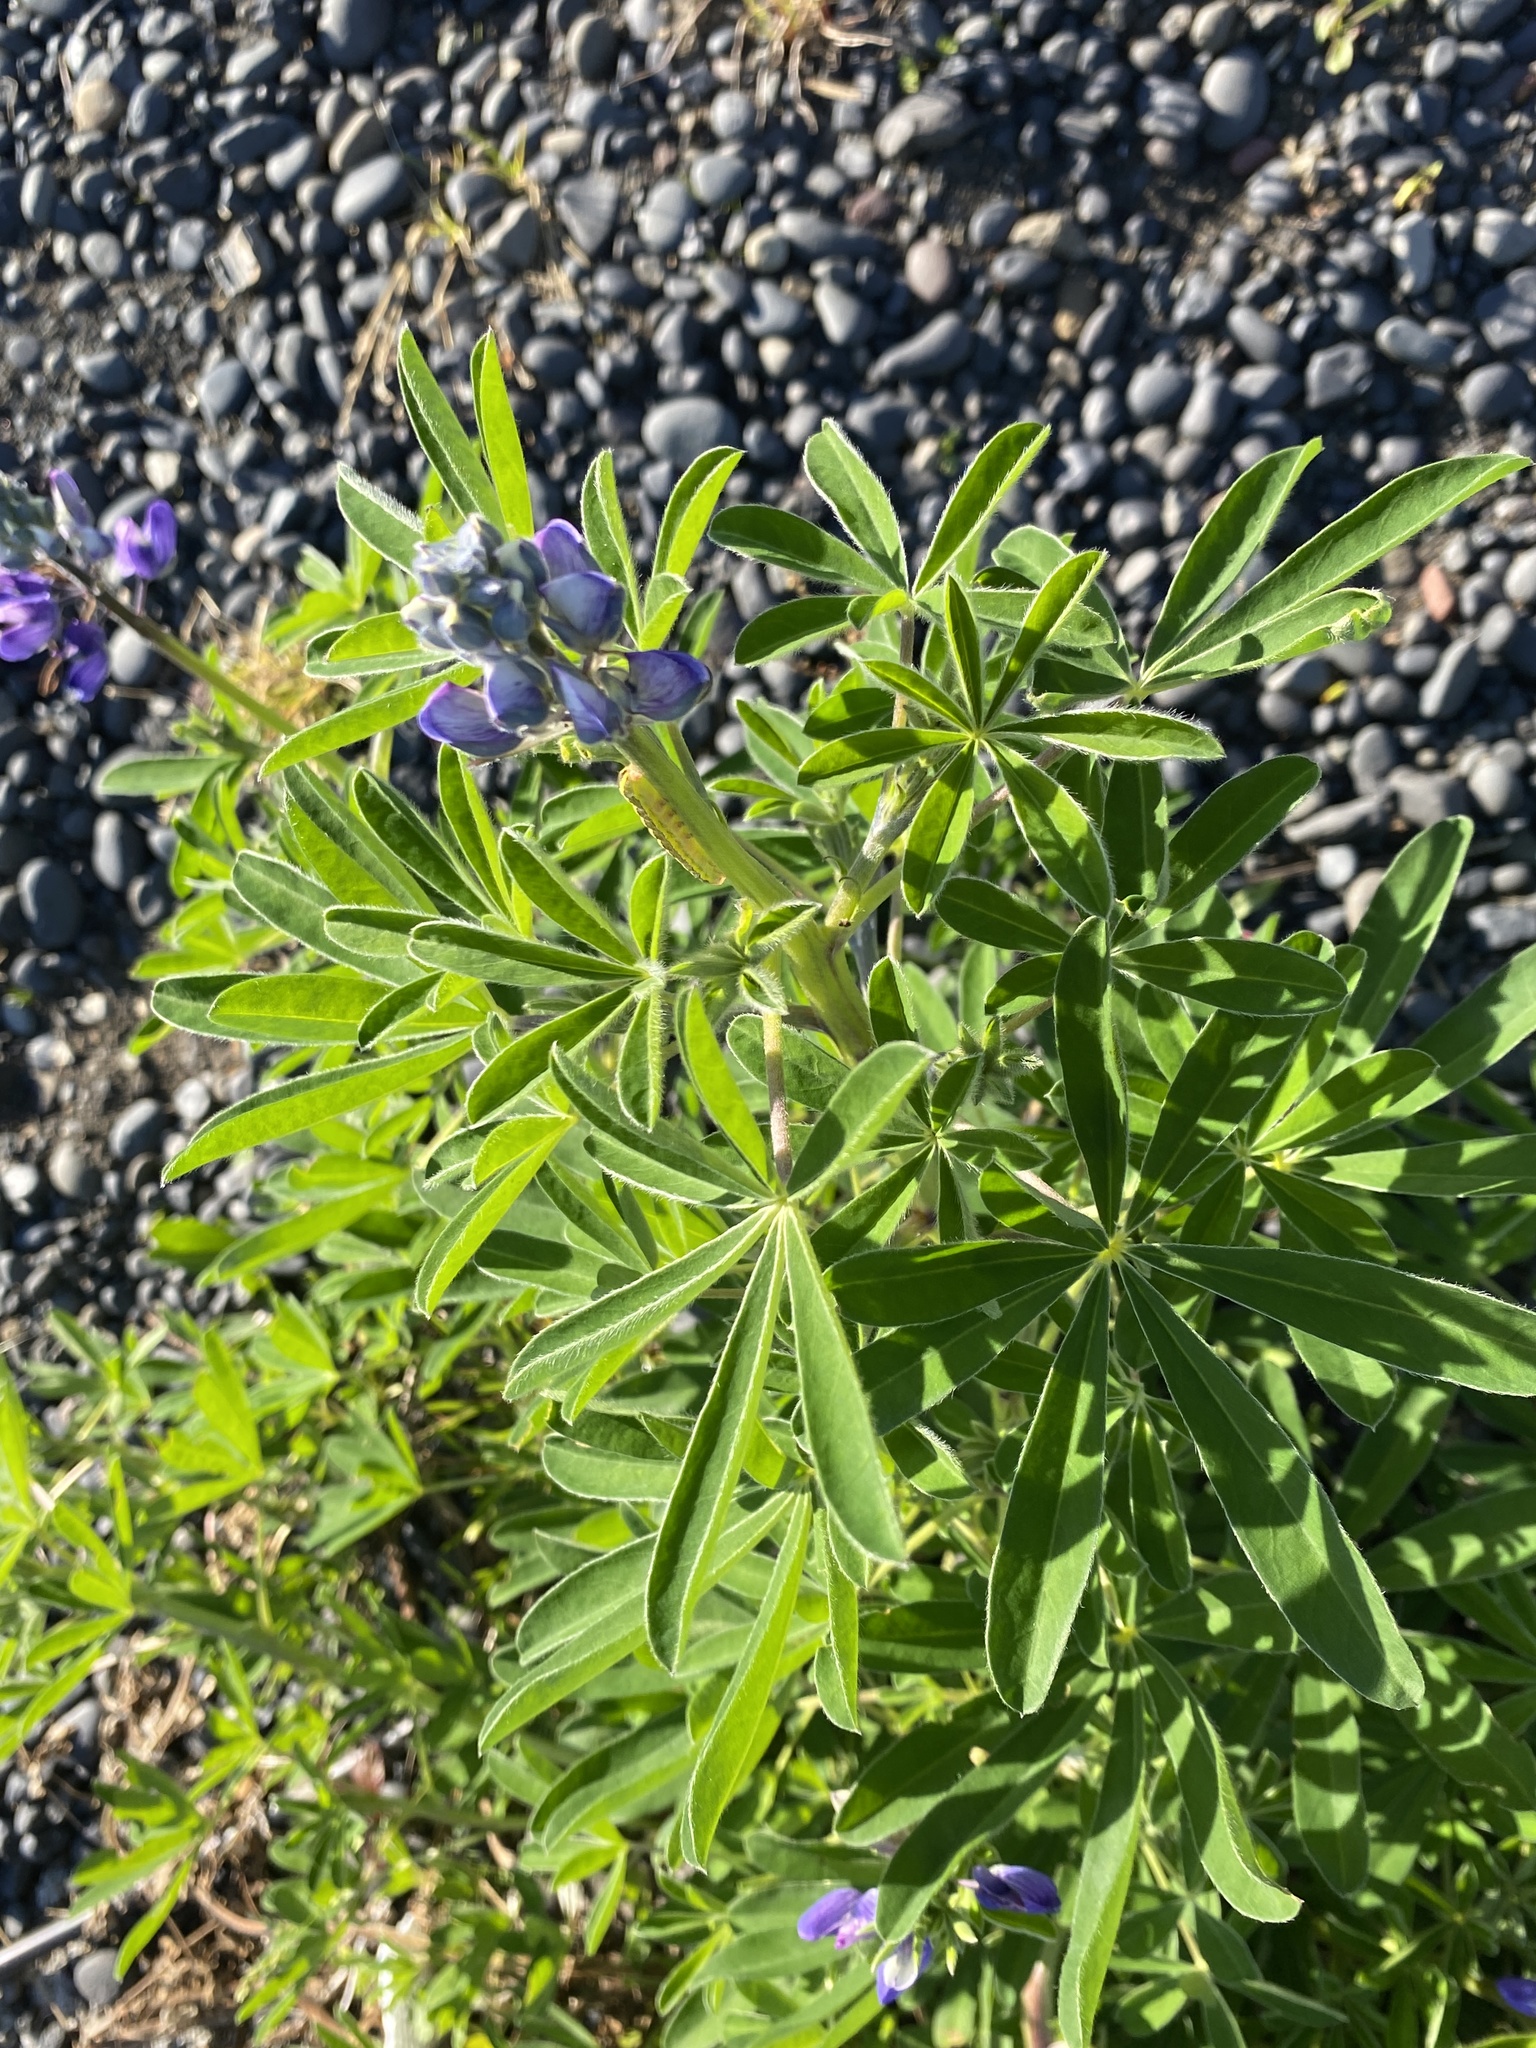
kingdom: Plantae
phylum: Tracheophyta
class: Magnoliopsida
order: Fabales
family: Fabaceae
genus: Lupinus
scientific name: Lupinus nootkatensis
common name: Nootka lupine
